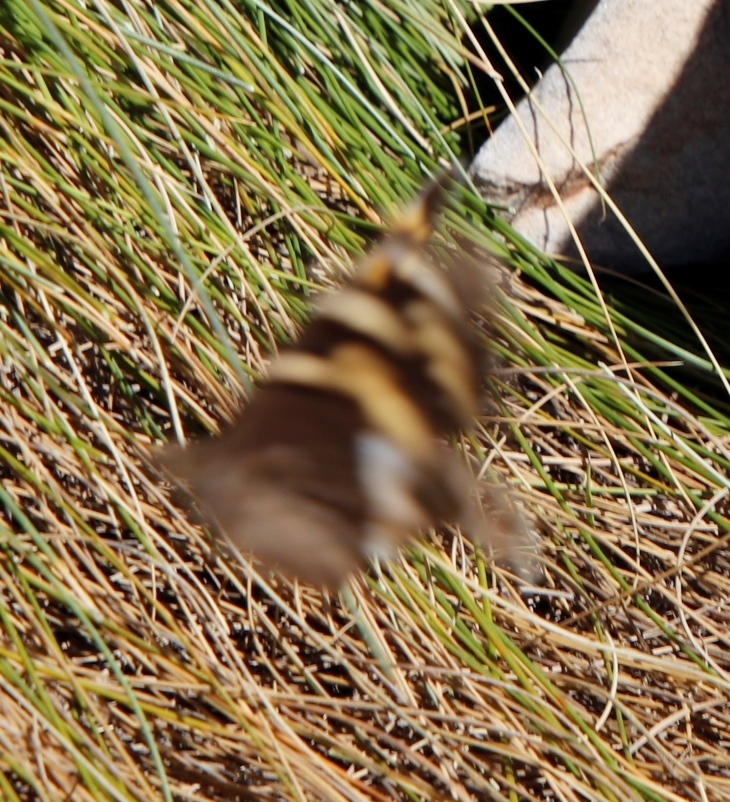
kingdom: Animalia
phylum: Arthropoda
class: Insecta
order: Lepidoptera
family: Nymphalidae
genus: Meneris
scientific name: Meneris Aeropetes tulbaghia
